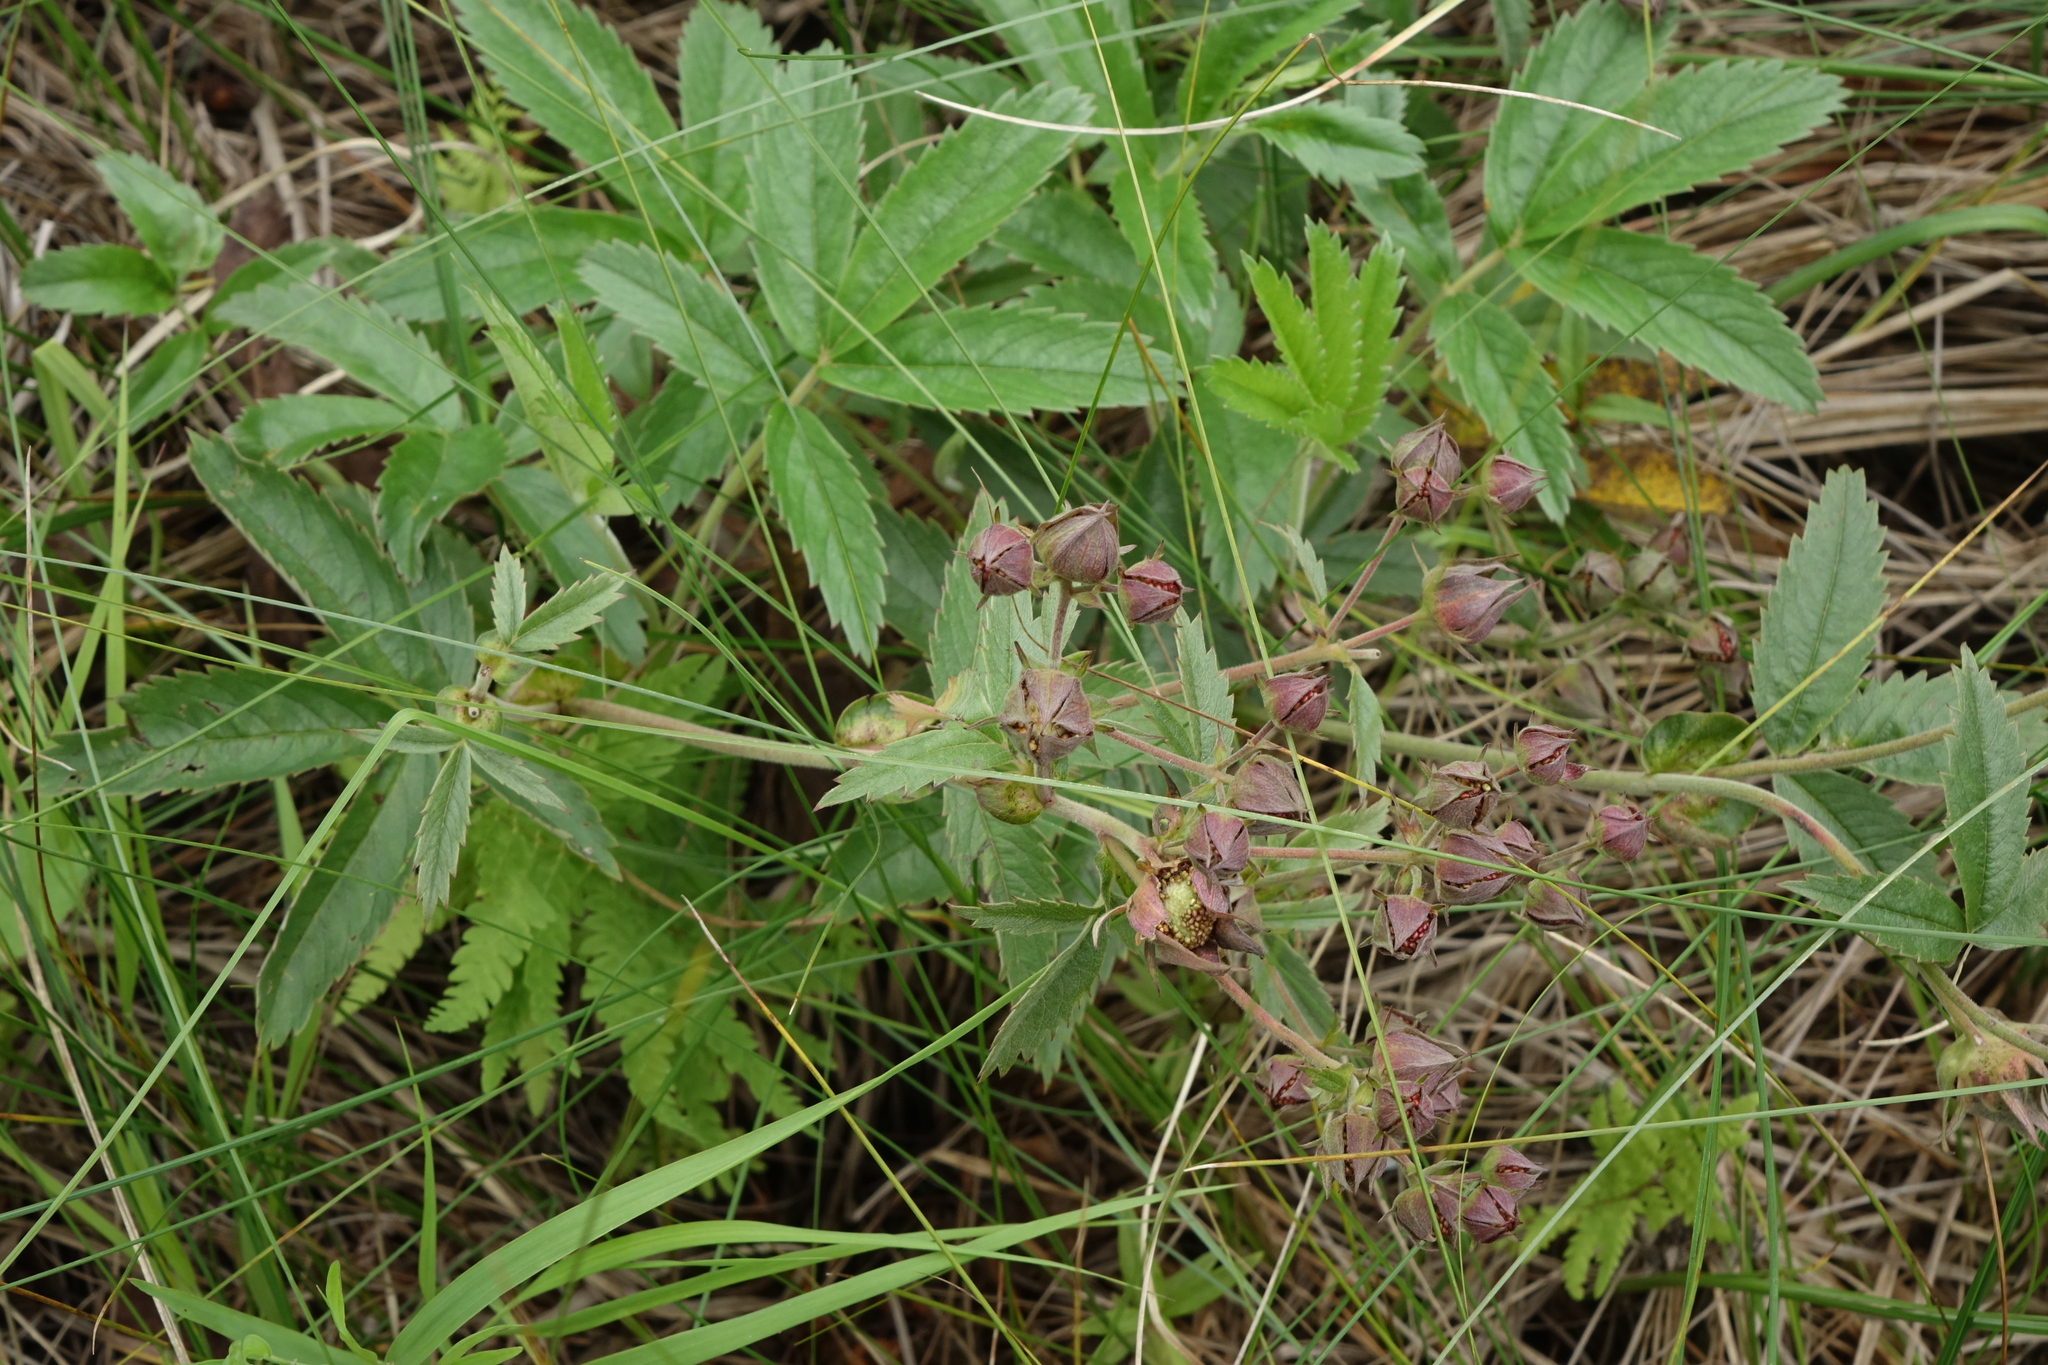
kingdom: Plantae
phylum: Tracheophyta
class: Magnoliopsida
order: Rosales
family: Rosaceae
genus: Comarum
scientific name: Comarum palustre
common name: Marsh cinquefoil
